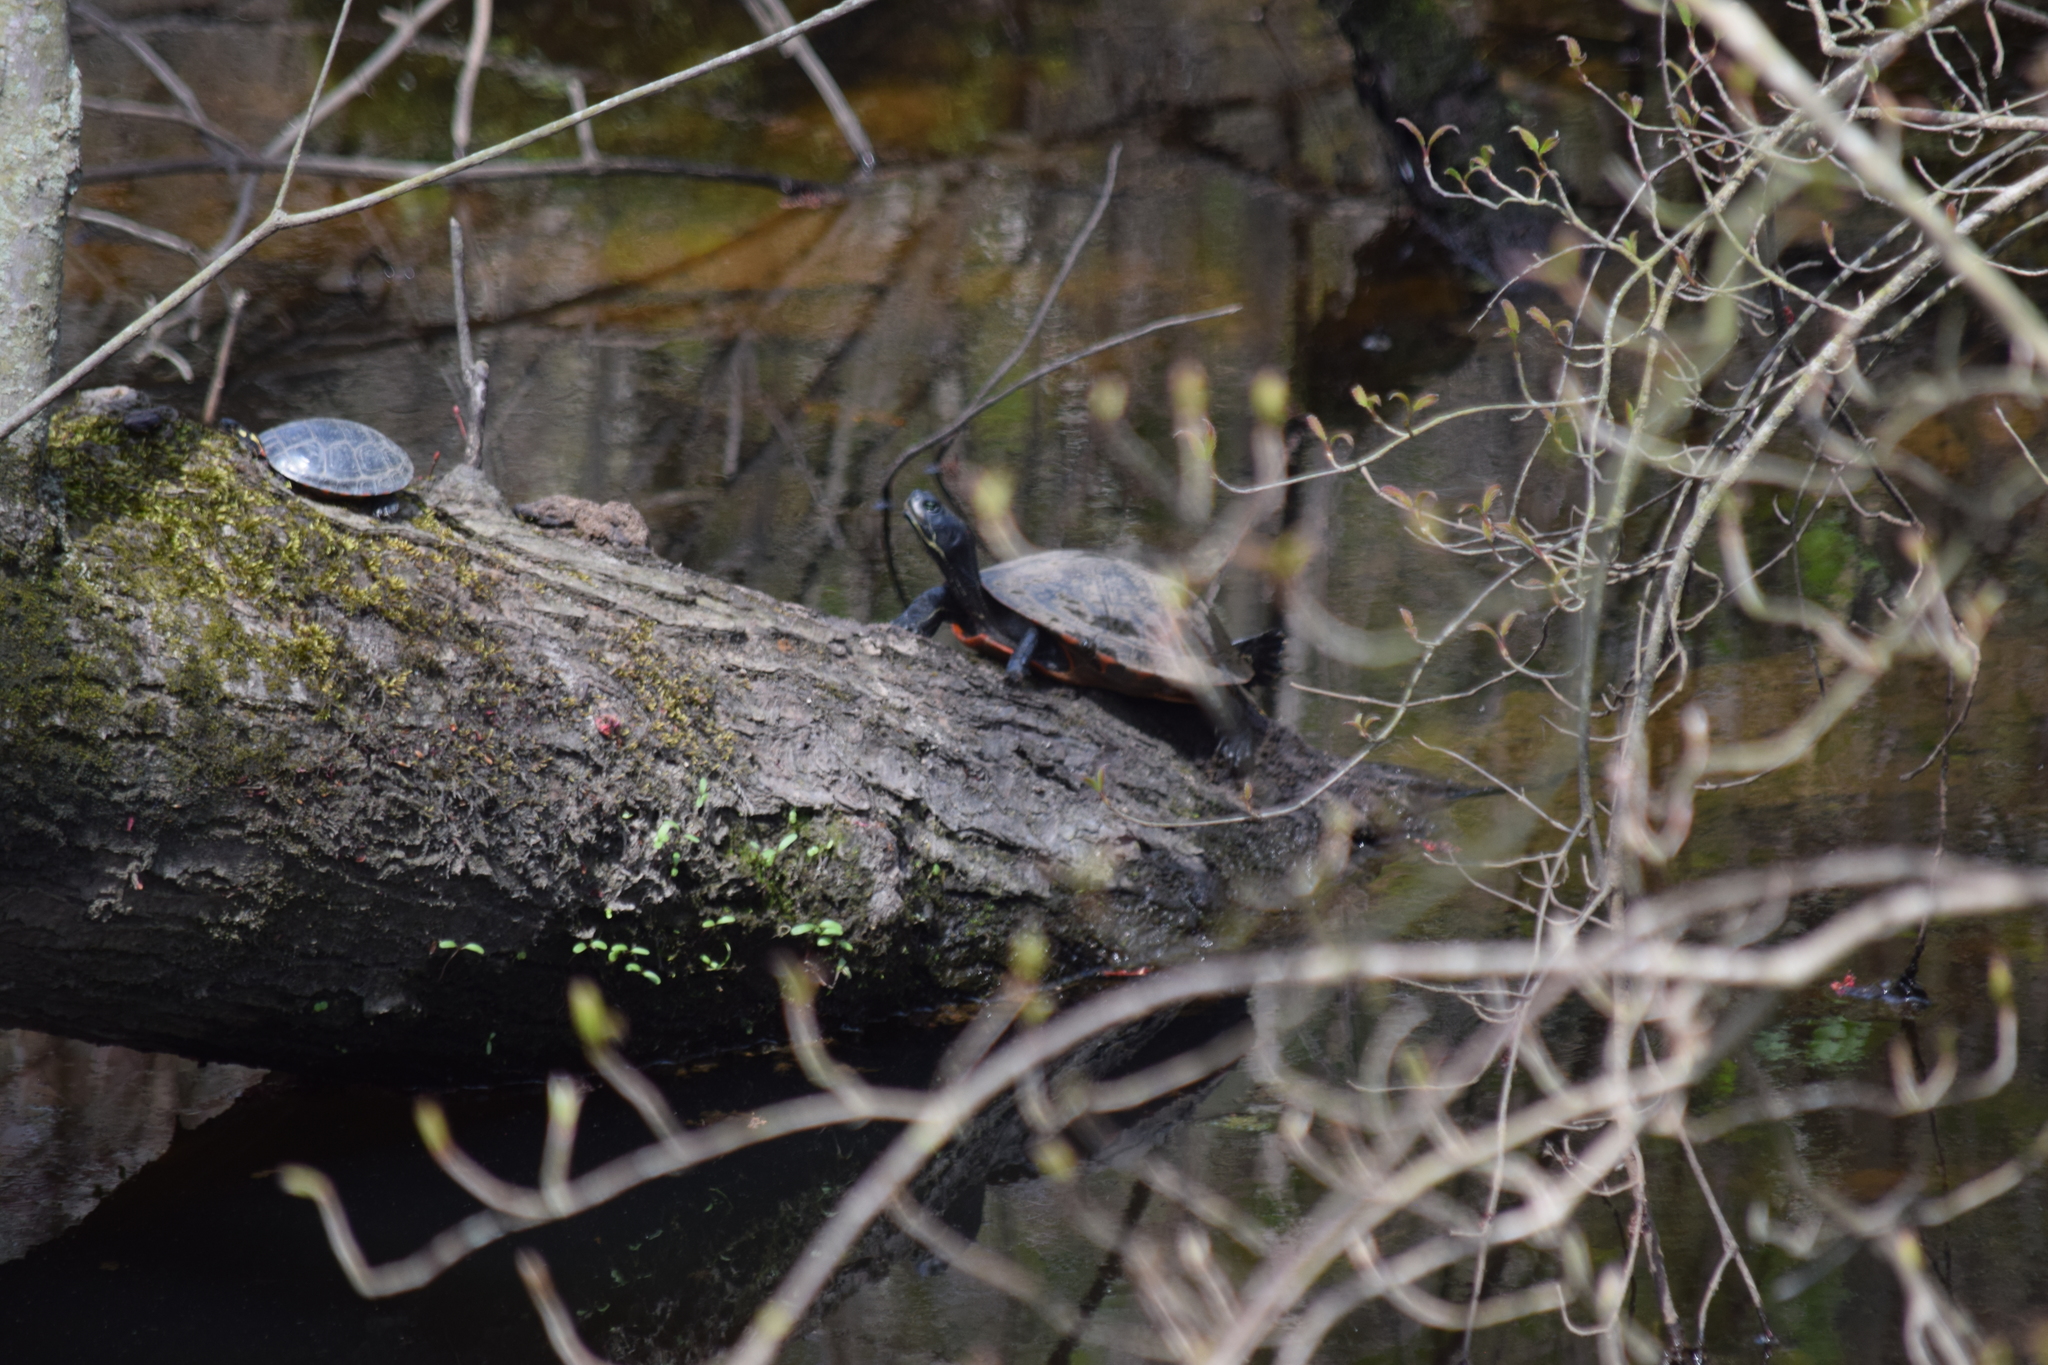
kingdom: Animalia
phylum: Chordata
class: Testudines
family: Emydidae
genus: Pseudemys
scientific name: Pseudemys rubriventris
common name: American red-bellied turtle
